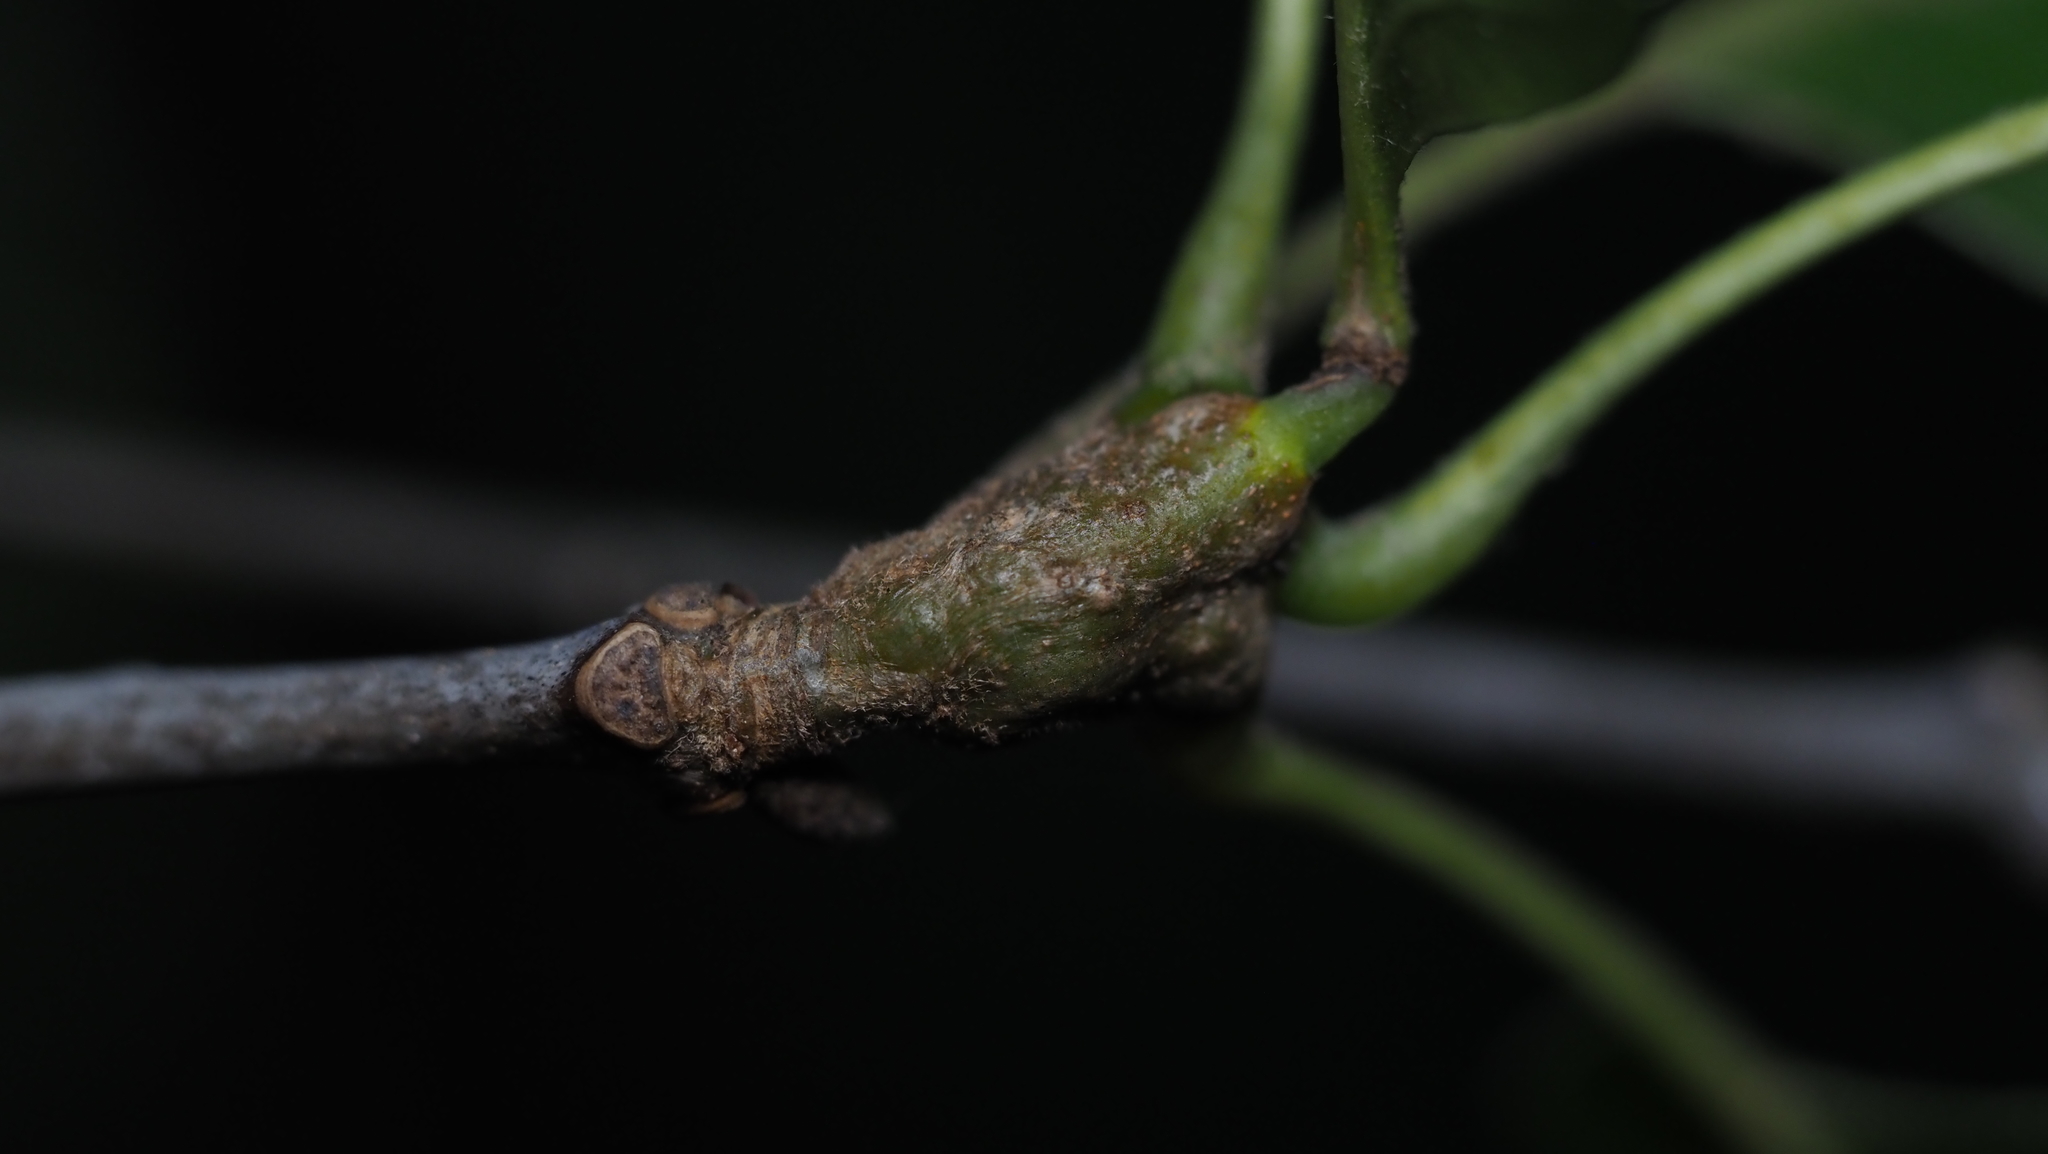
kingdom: Animalia
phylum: Arthropoda
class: Insecta
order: Hymenoptera
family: Cynipidae
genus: Callirhytis
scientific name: Callirhytis
